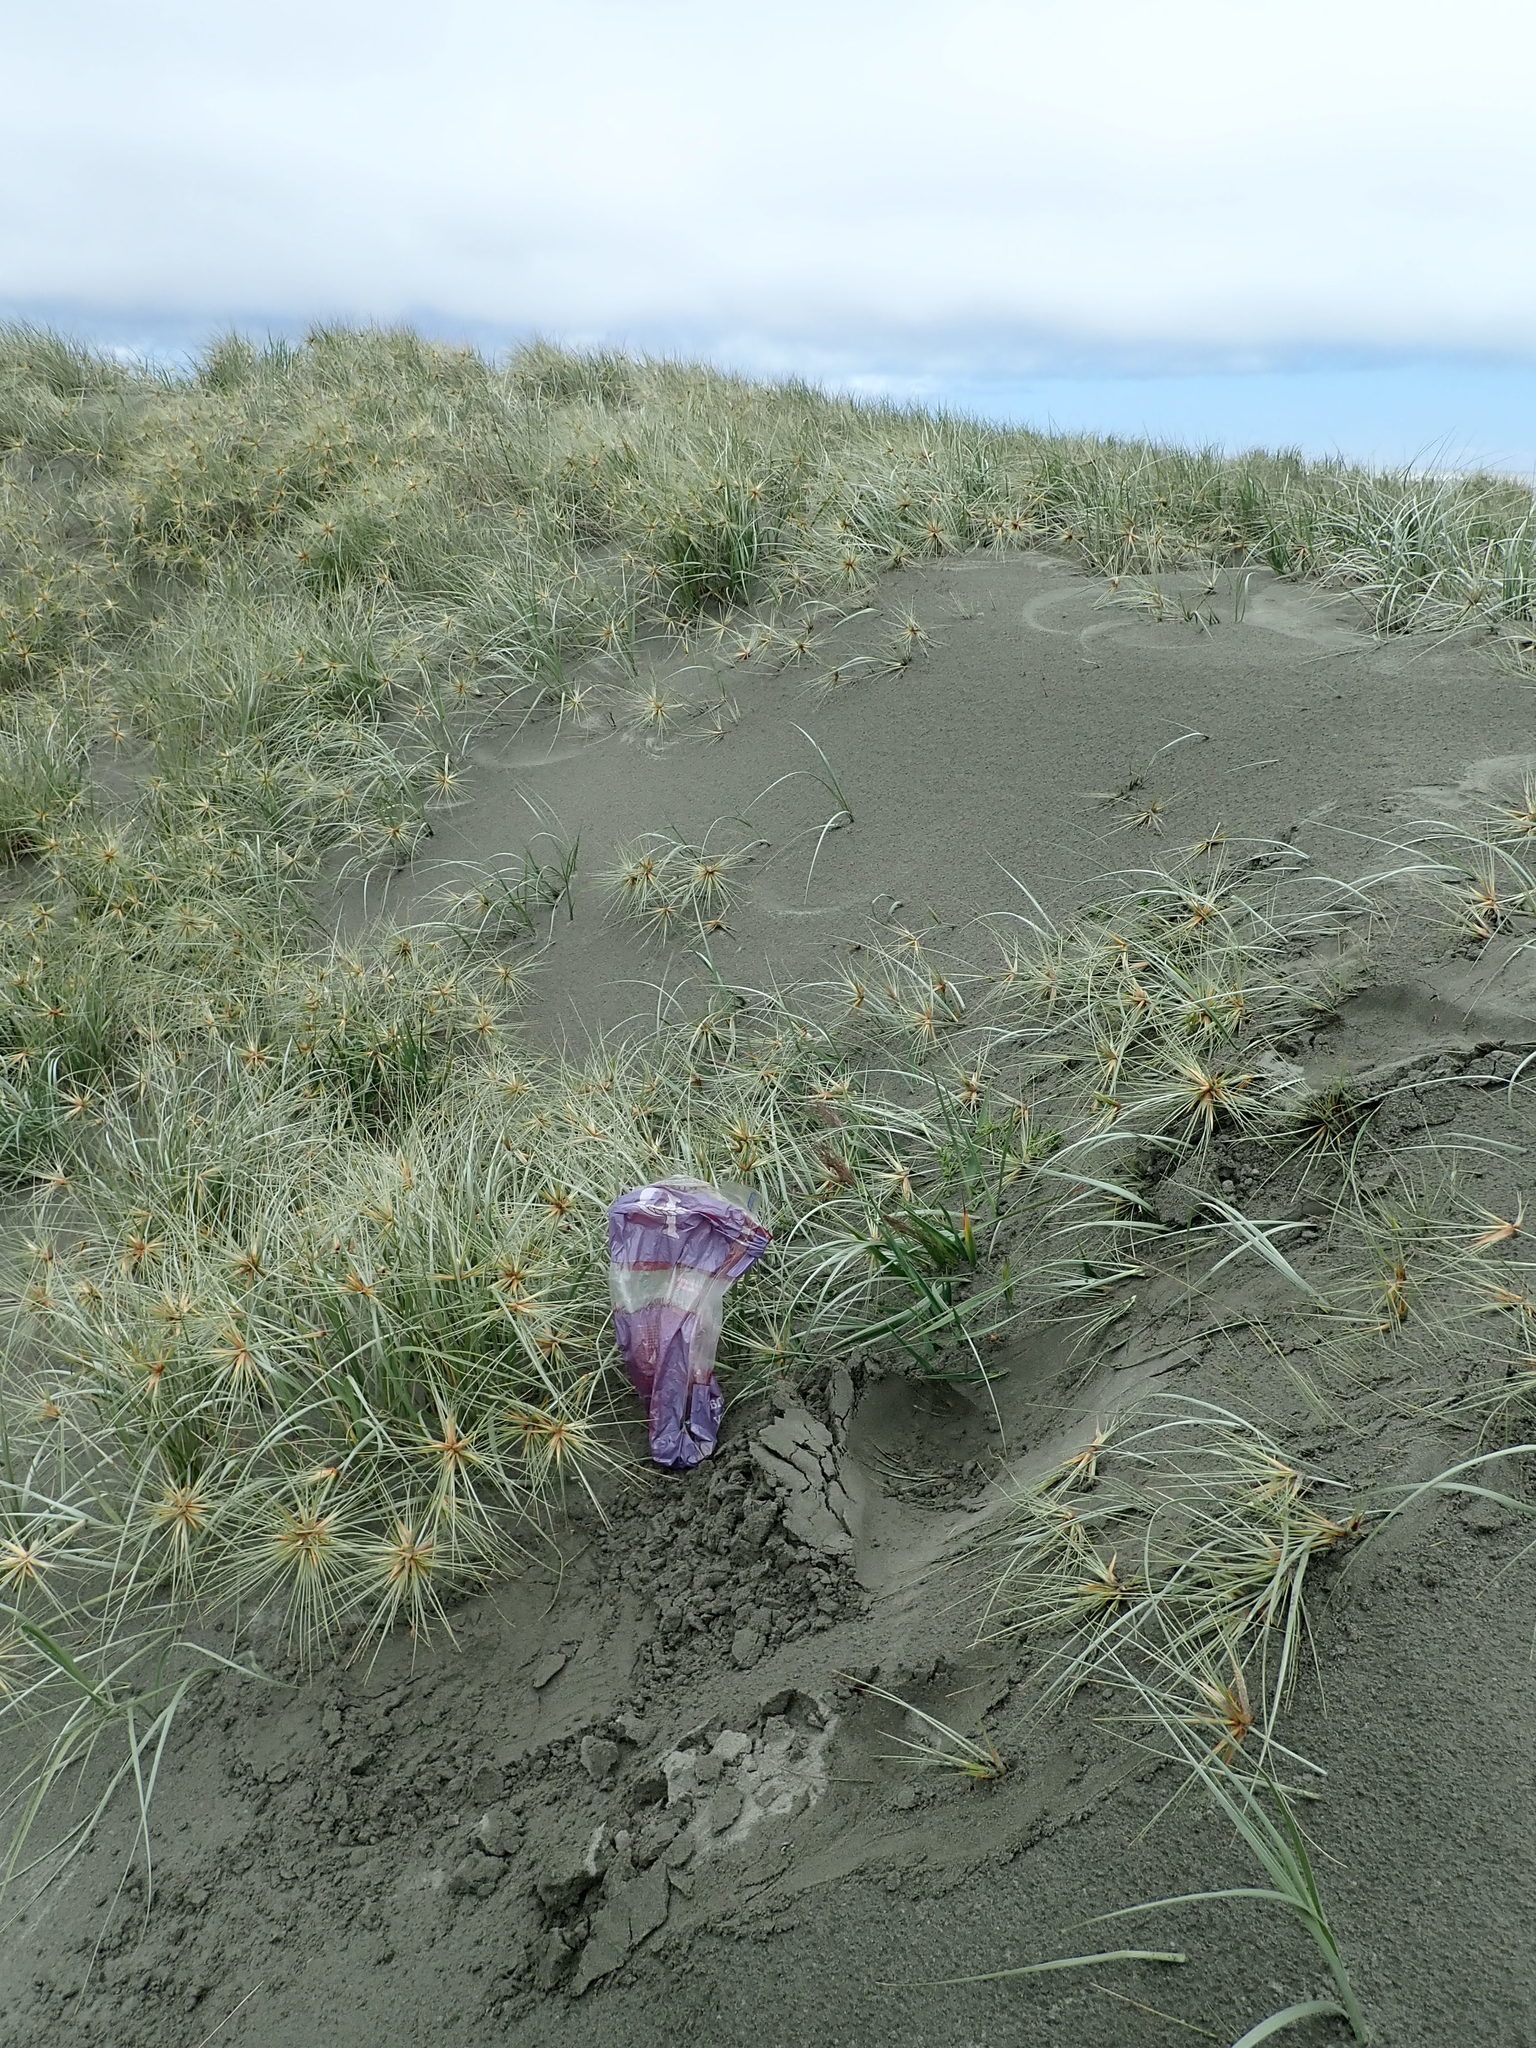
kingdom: Plantae
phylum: Tracheophyta
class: Liliopsida
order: Poales
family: Poaceae
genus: Lachnagrostis
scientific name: Lachnagrostis billardierei
